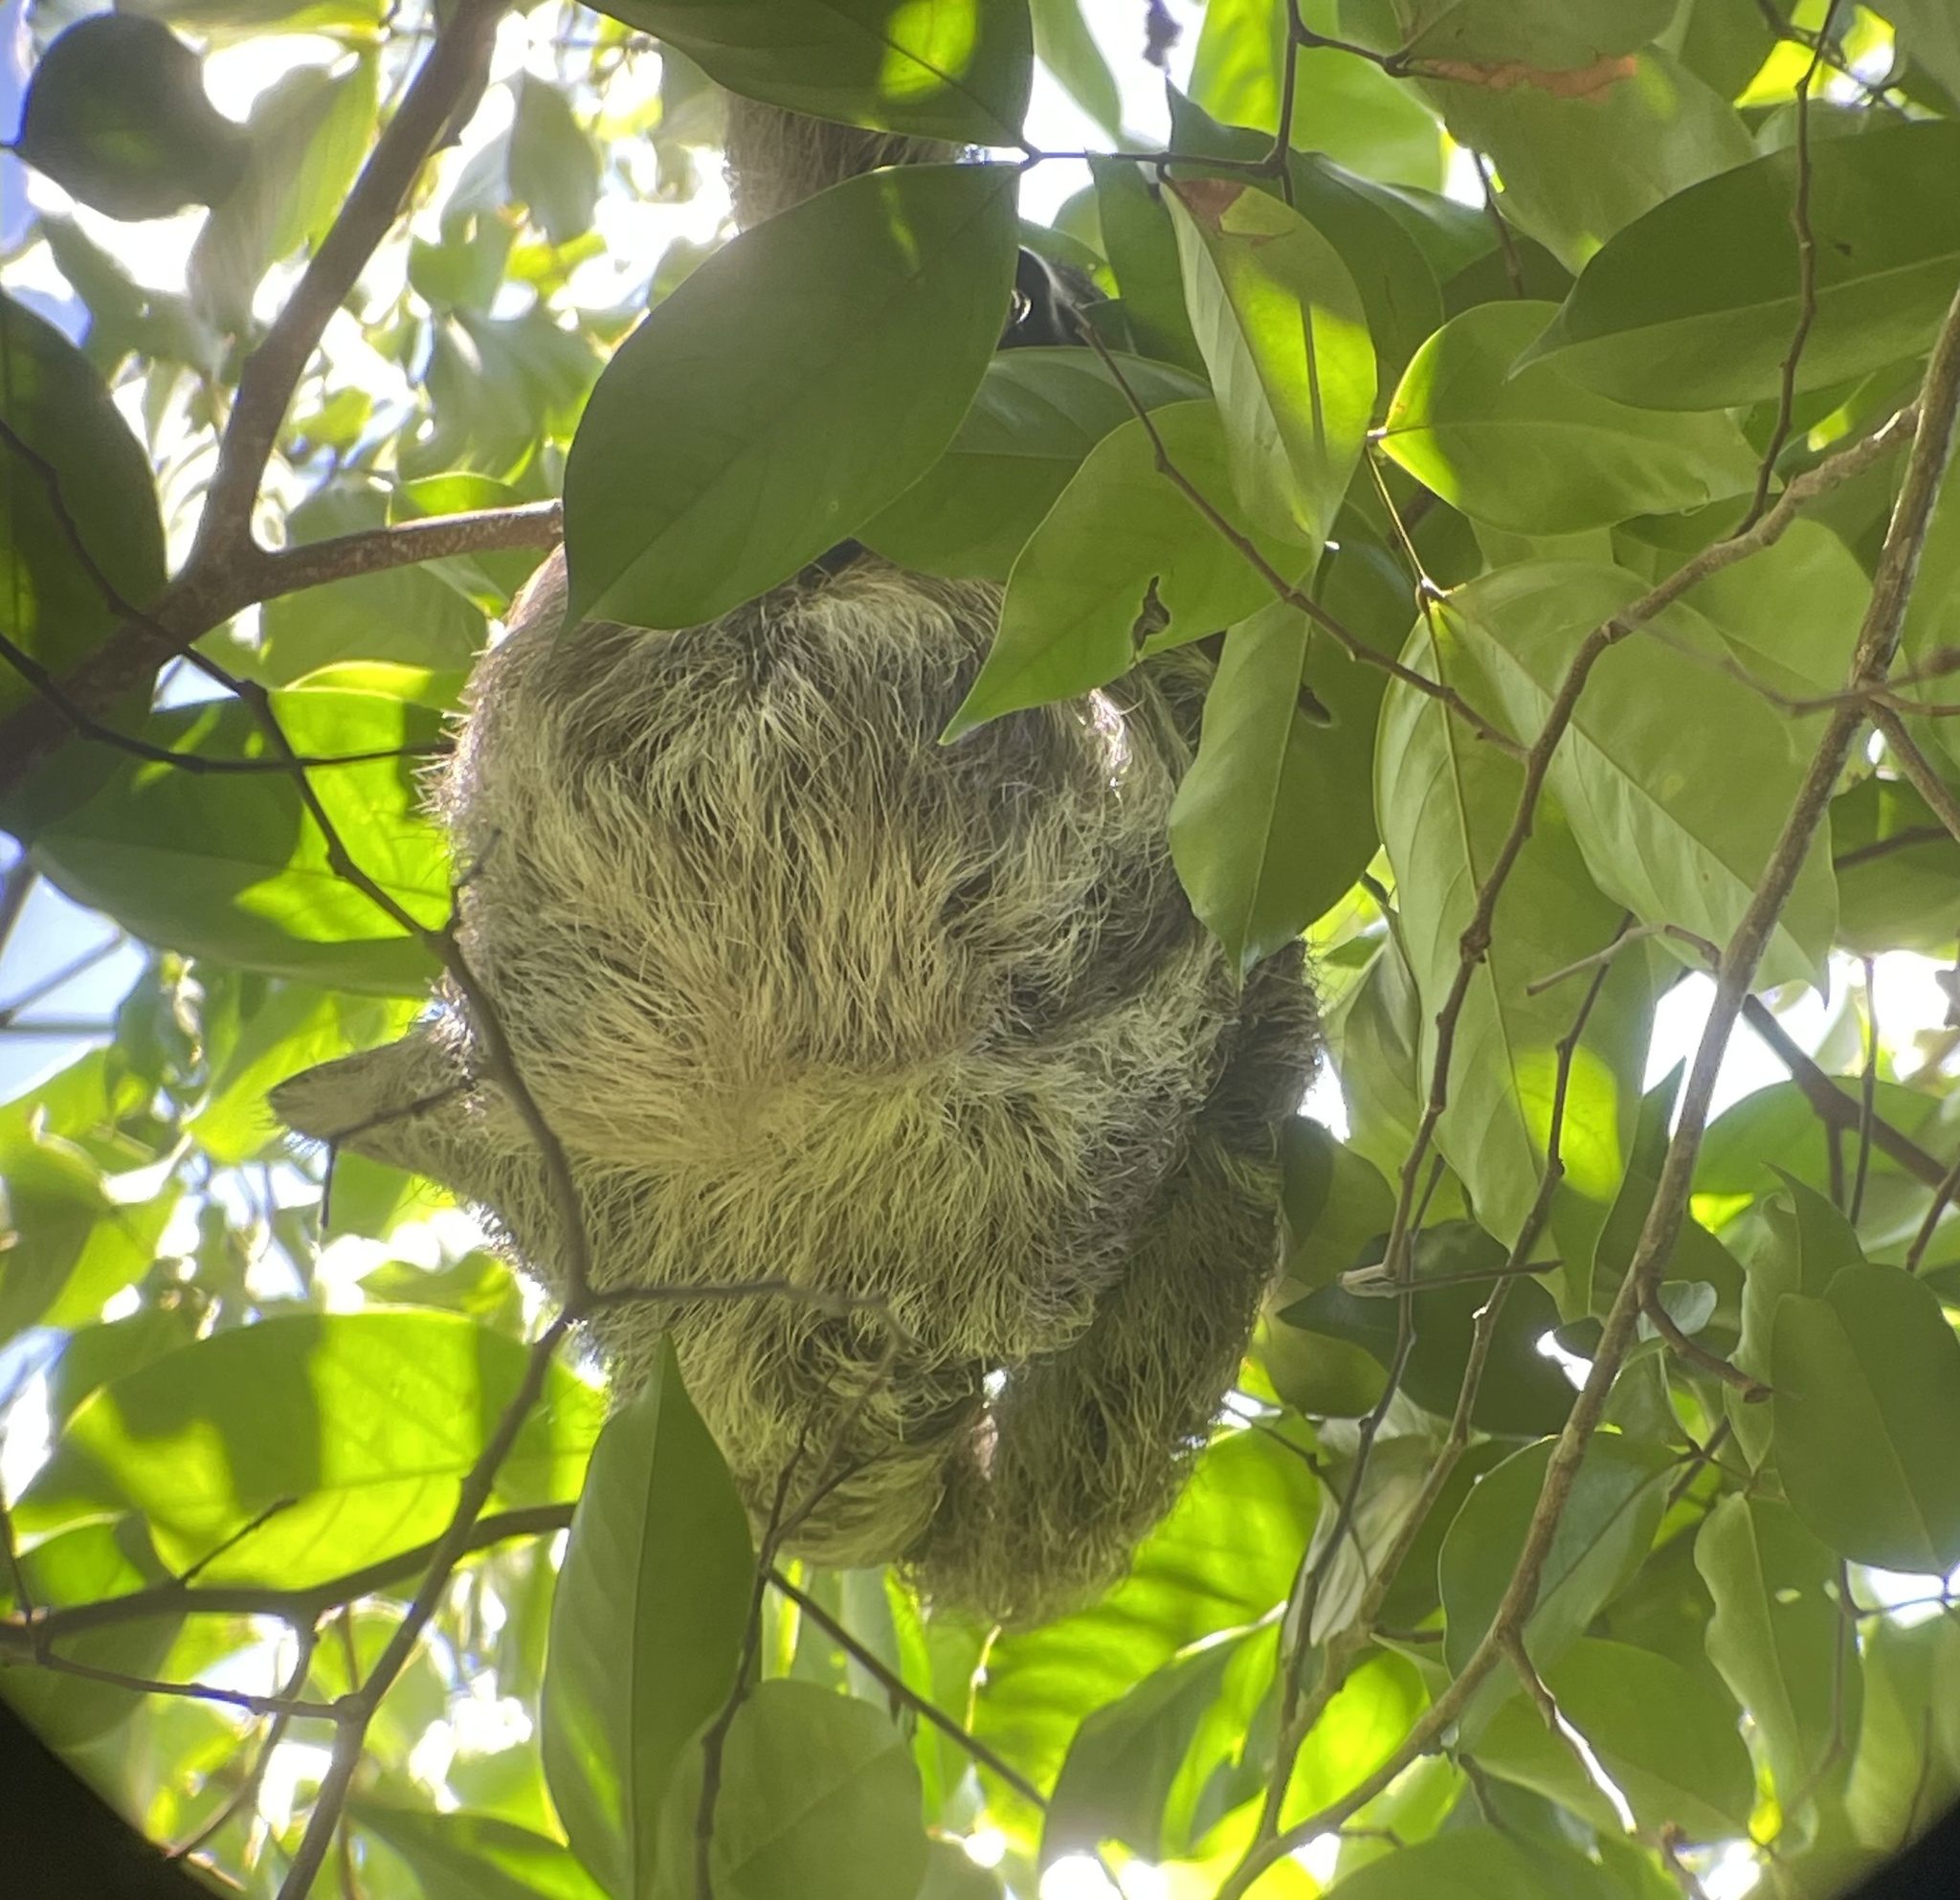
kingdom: Animalia
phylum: Chordata
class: Mammalia
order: Pilosa
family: Bradypodidae
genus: Bradypus
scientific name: Bradypus variegatus
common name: Brown-throated three-toed sloth
